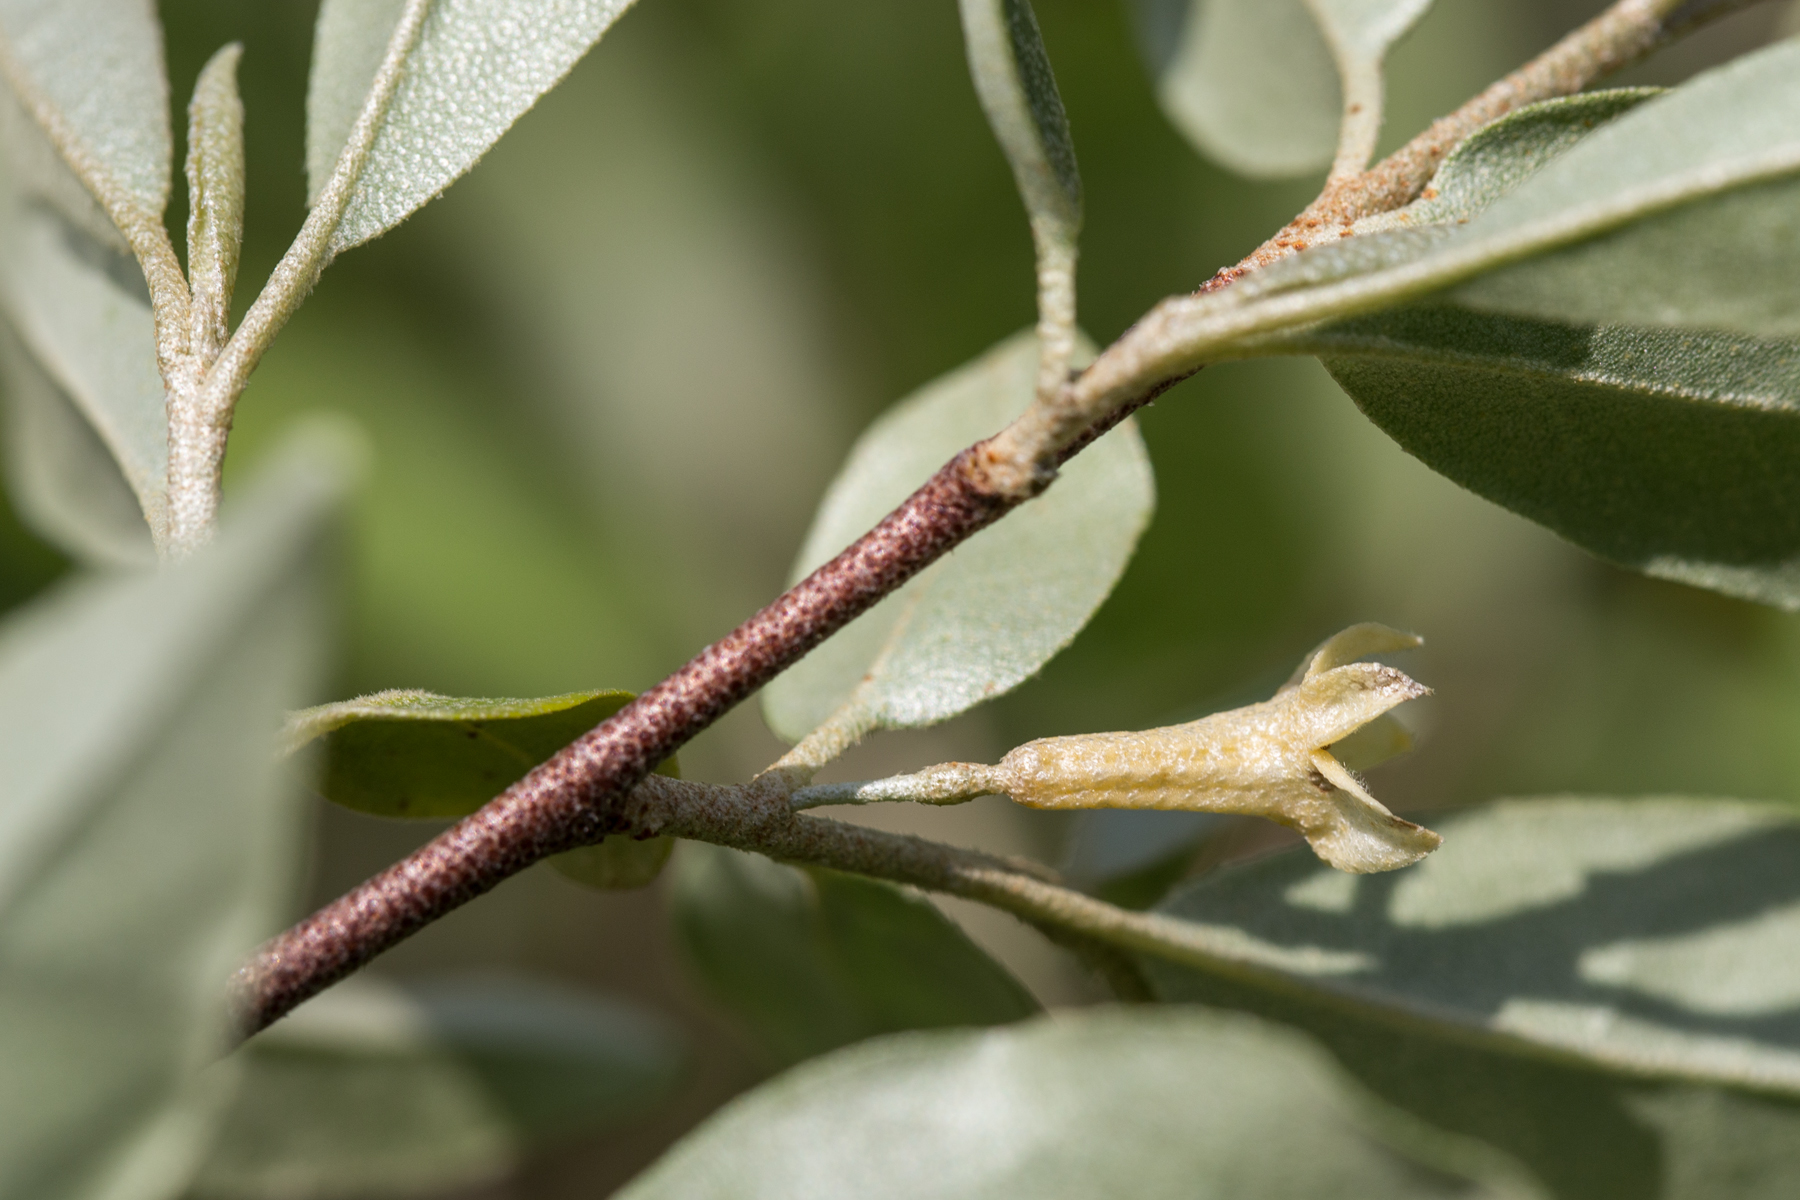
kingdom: Plantae
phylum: Tracheophyta
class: Magnoliopsida
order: Rosales
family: Elaeagnaceae
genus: Elaeagnus
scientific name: Elaeagnus umbellata
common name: Autumn olive
